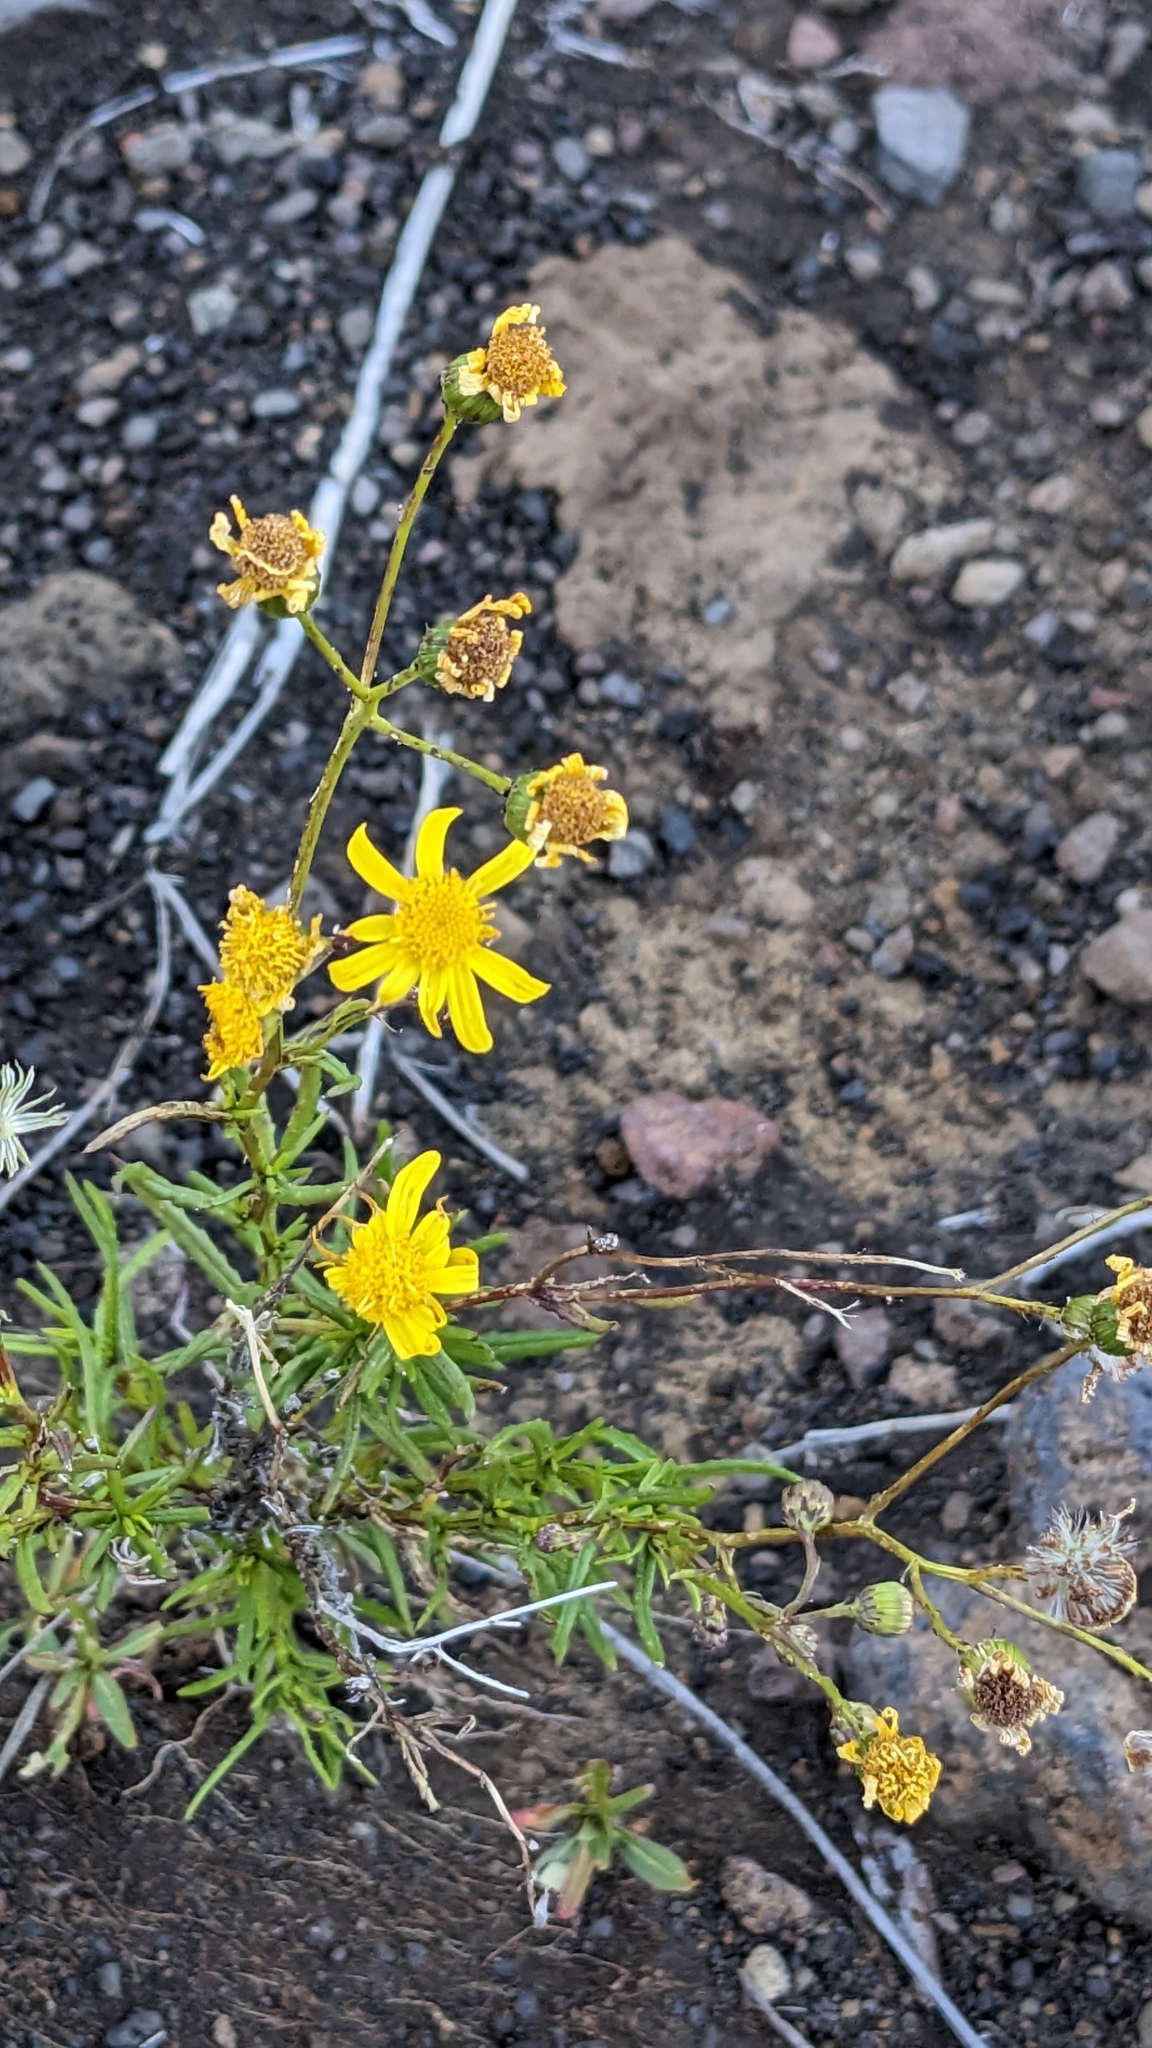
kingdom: Plantae
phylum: Tracheophyta
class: Magnoliopsida
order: Asterales
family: Asteraceae
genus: Senecio
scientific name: Senecio madagascariensis
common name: Madagascar ragwort
